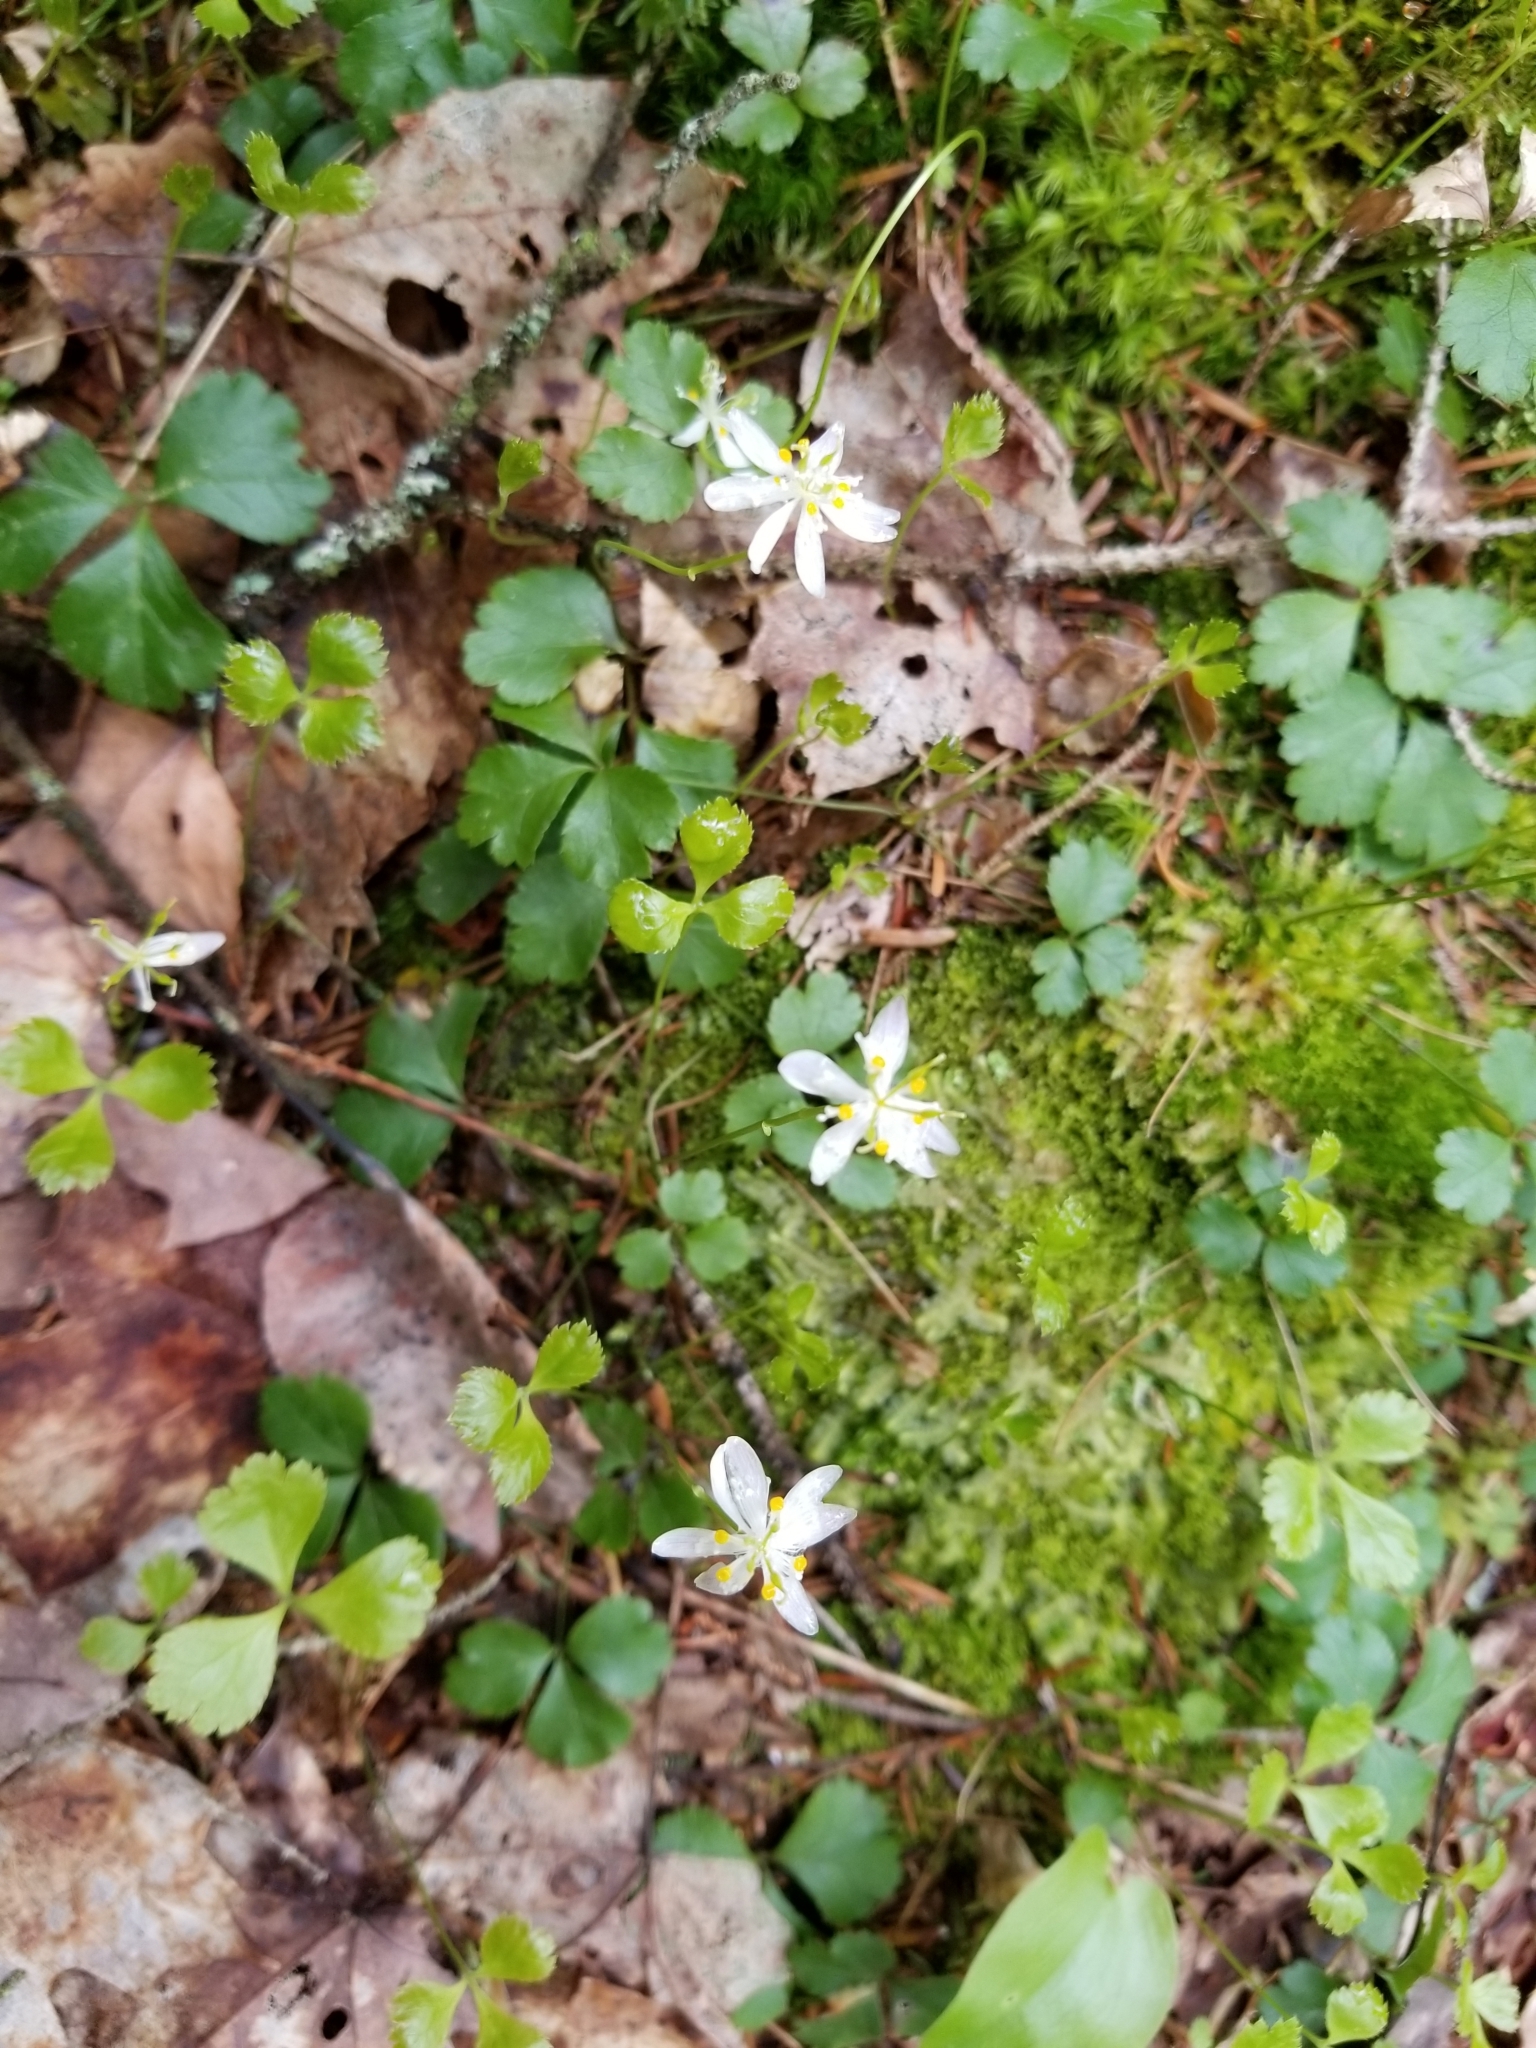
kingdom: Plantae
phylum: Tracheophyta
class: Magnoliopsida
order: Ranunculales
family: Ranunculaceae
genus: Coptis
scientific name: Coptis trifolia
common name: Canker-root
